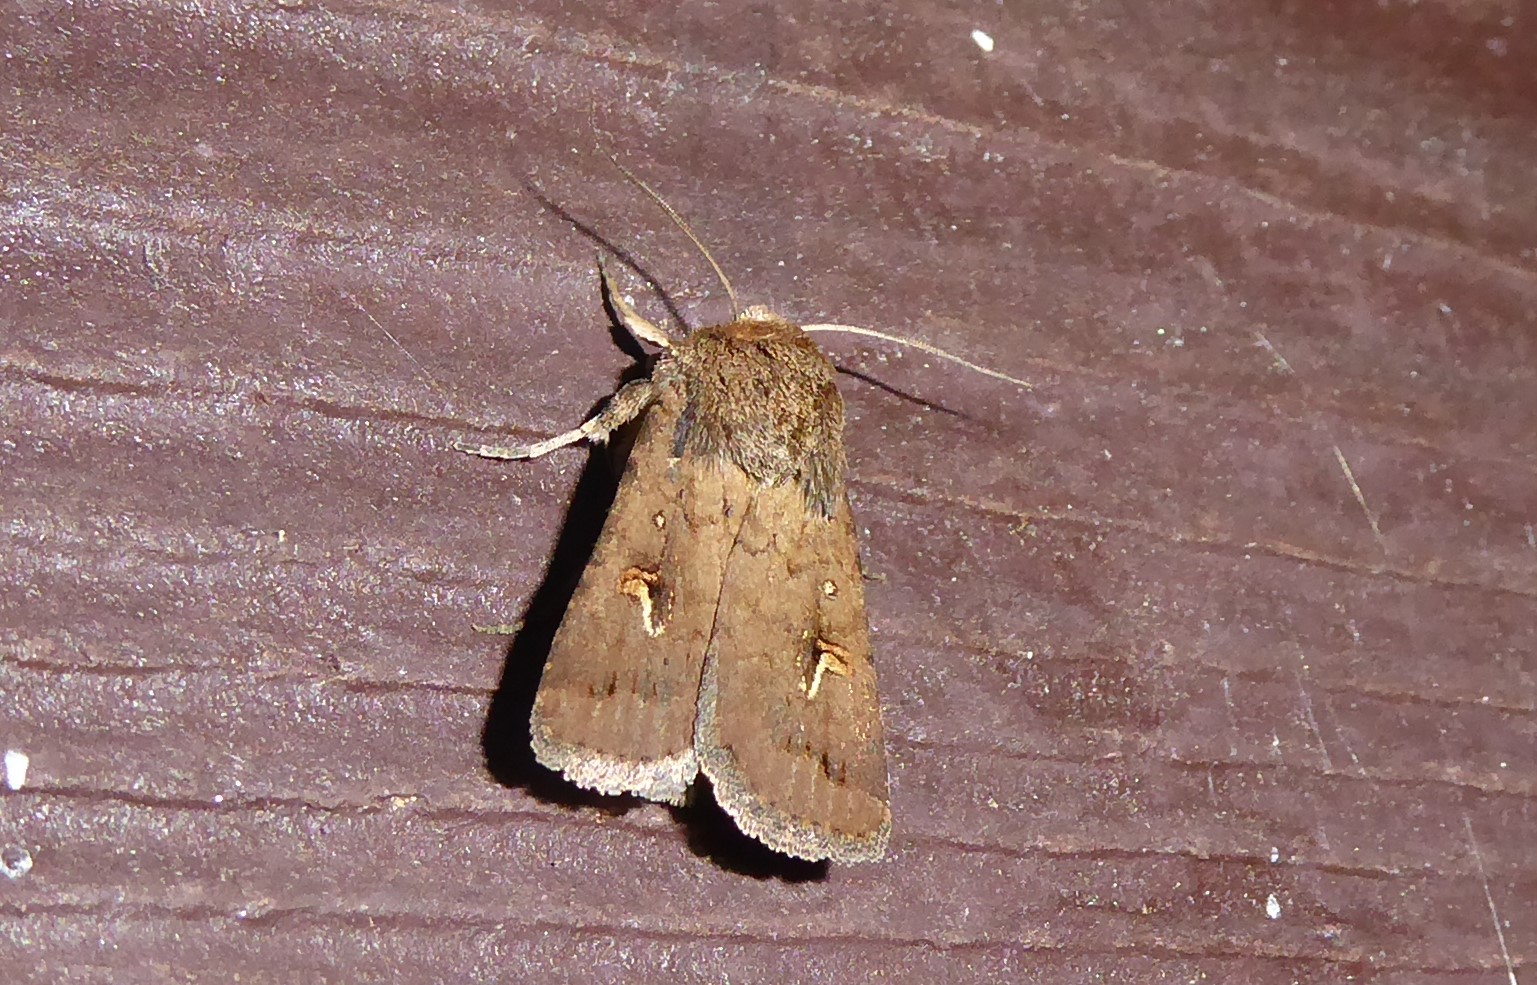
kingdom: Animalia
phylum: Arthropoda
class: Insecta
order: Lepidoptera
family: Noctuidae
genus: Proteuxoa
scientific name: Proteuxoa tetronycha
